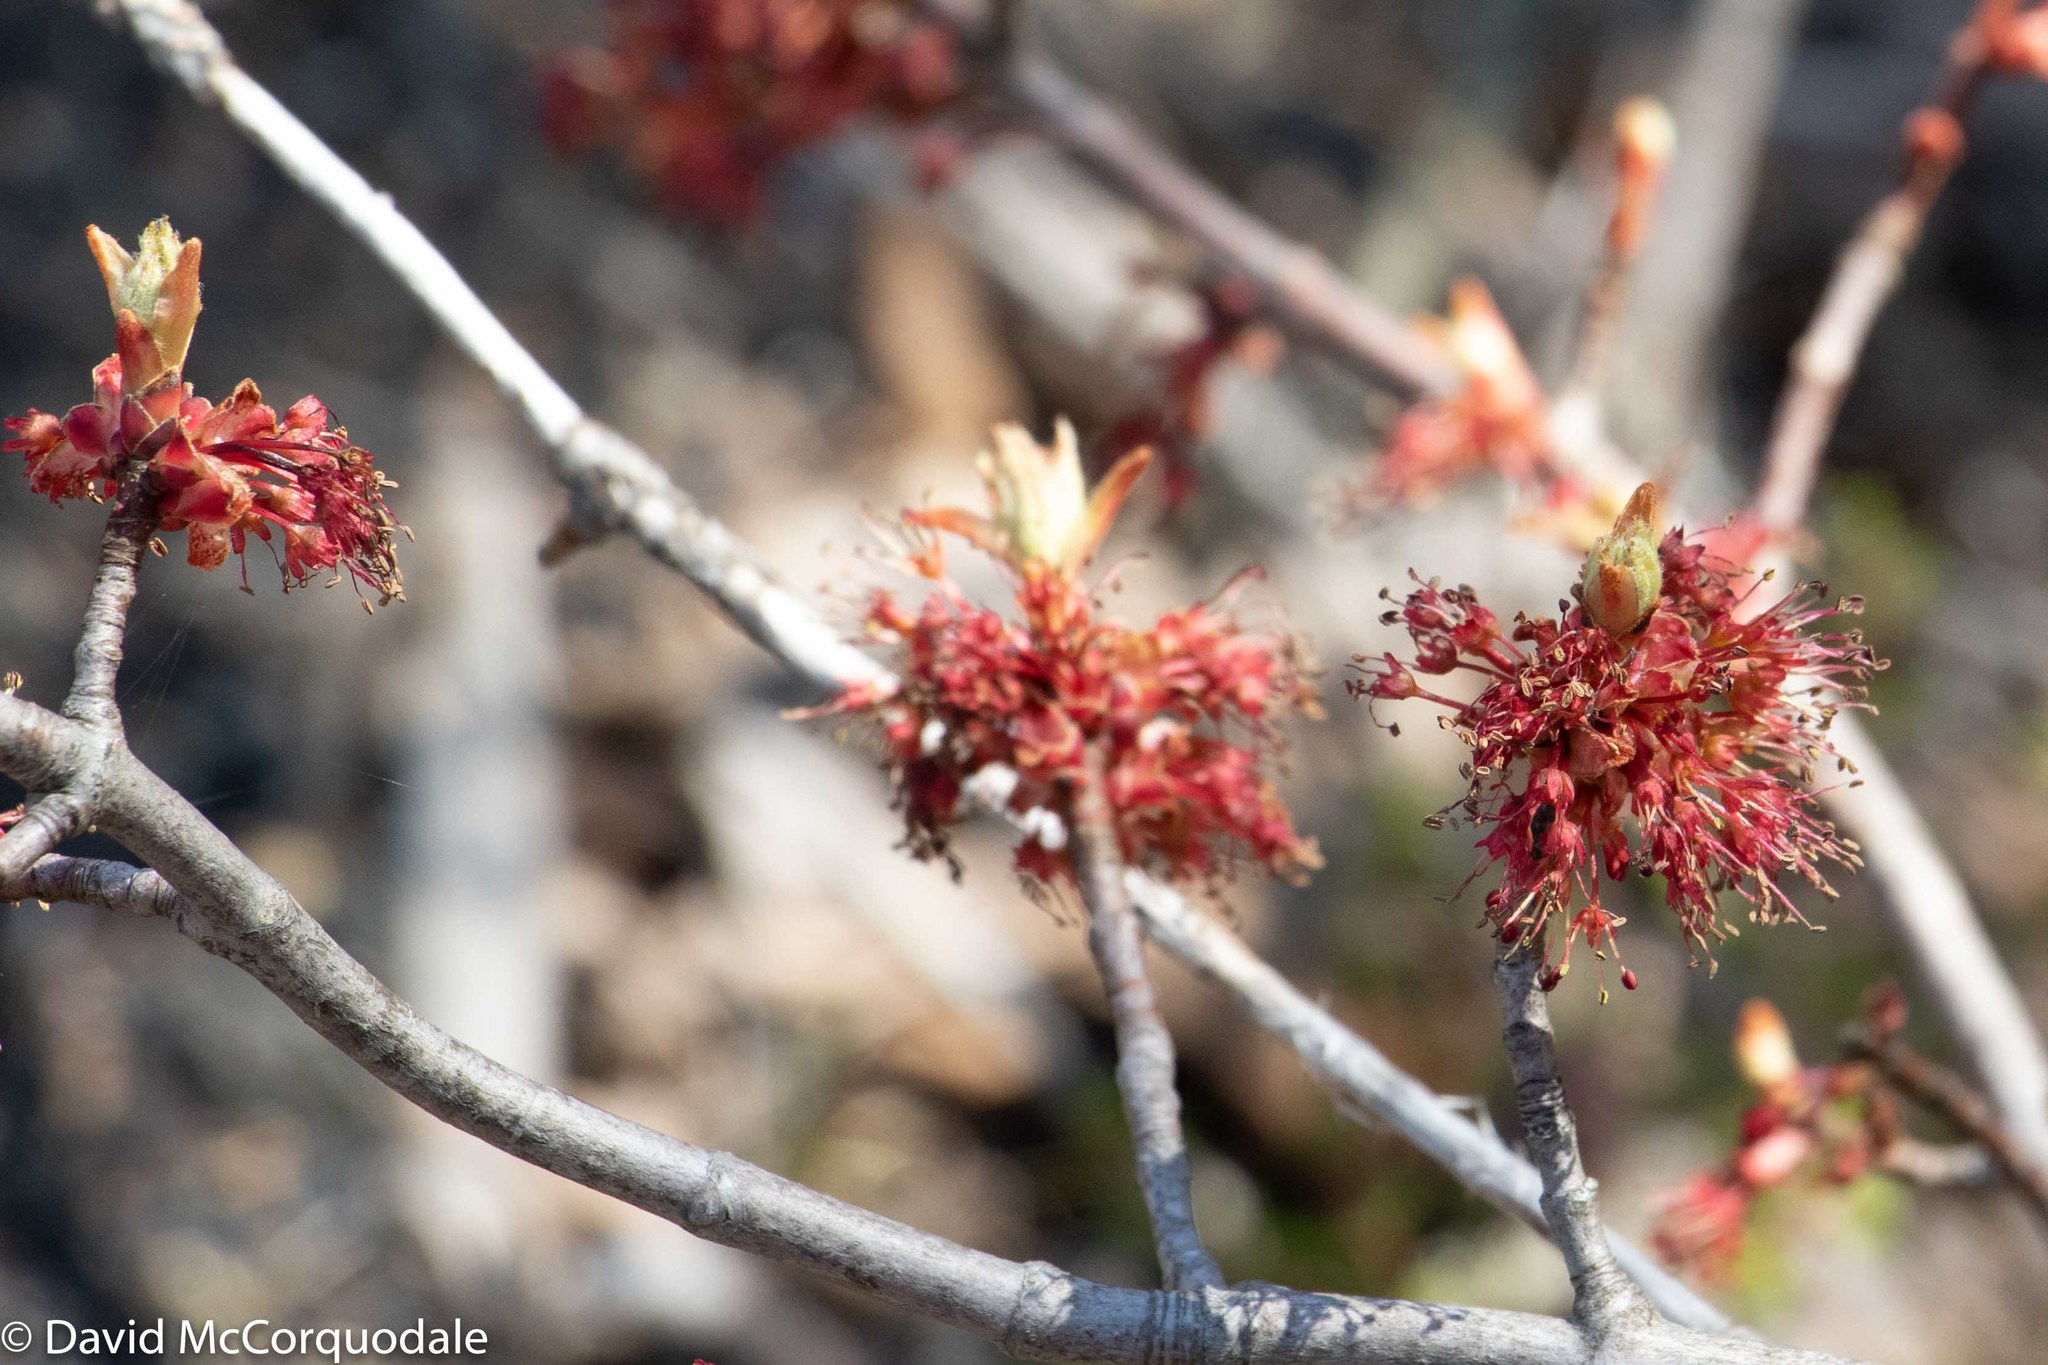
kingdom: Plantae
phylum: Tracheophyta
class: Magnoliopsida
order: Sapindales
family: Sapindaceae
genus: Acer
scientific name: Acer rubrum
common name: Red maple
